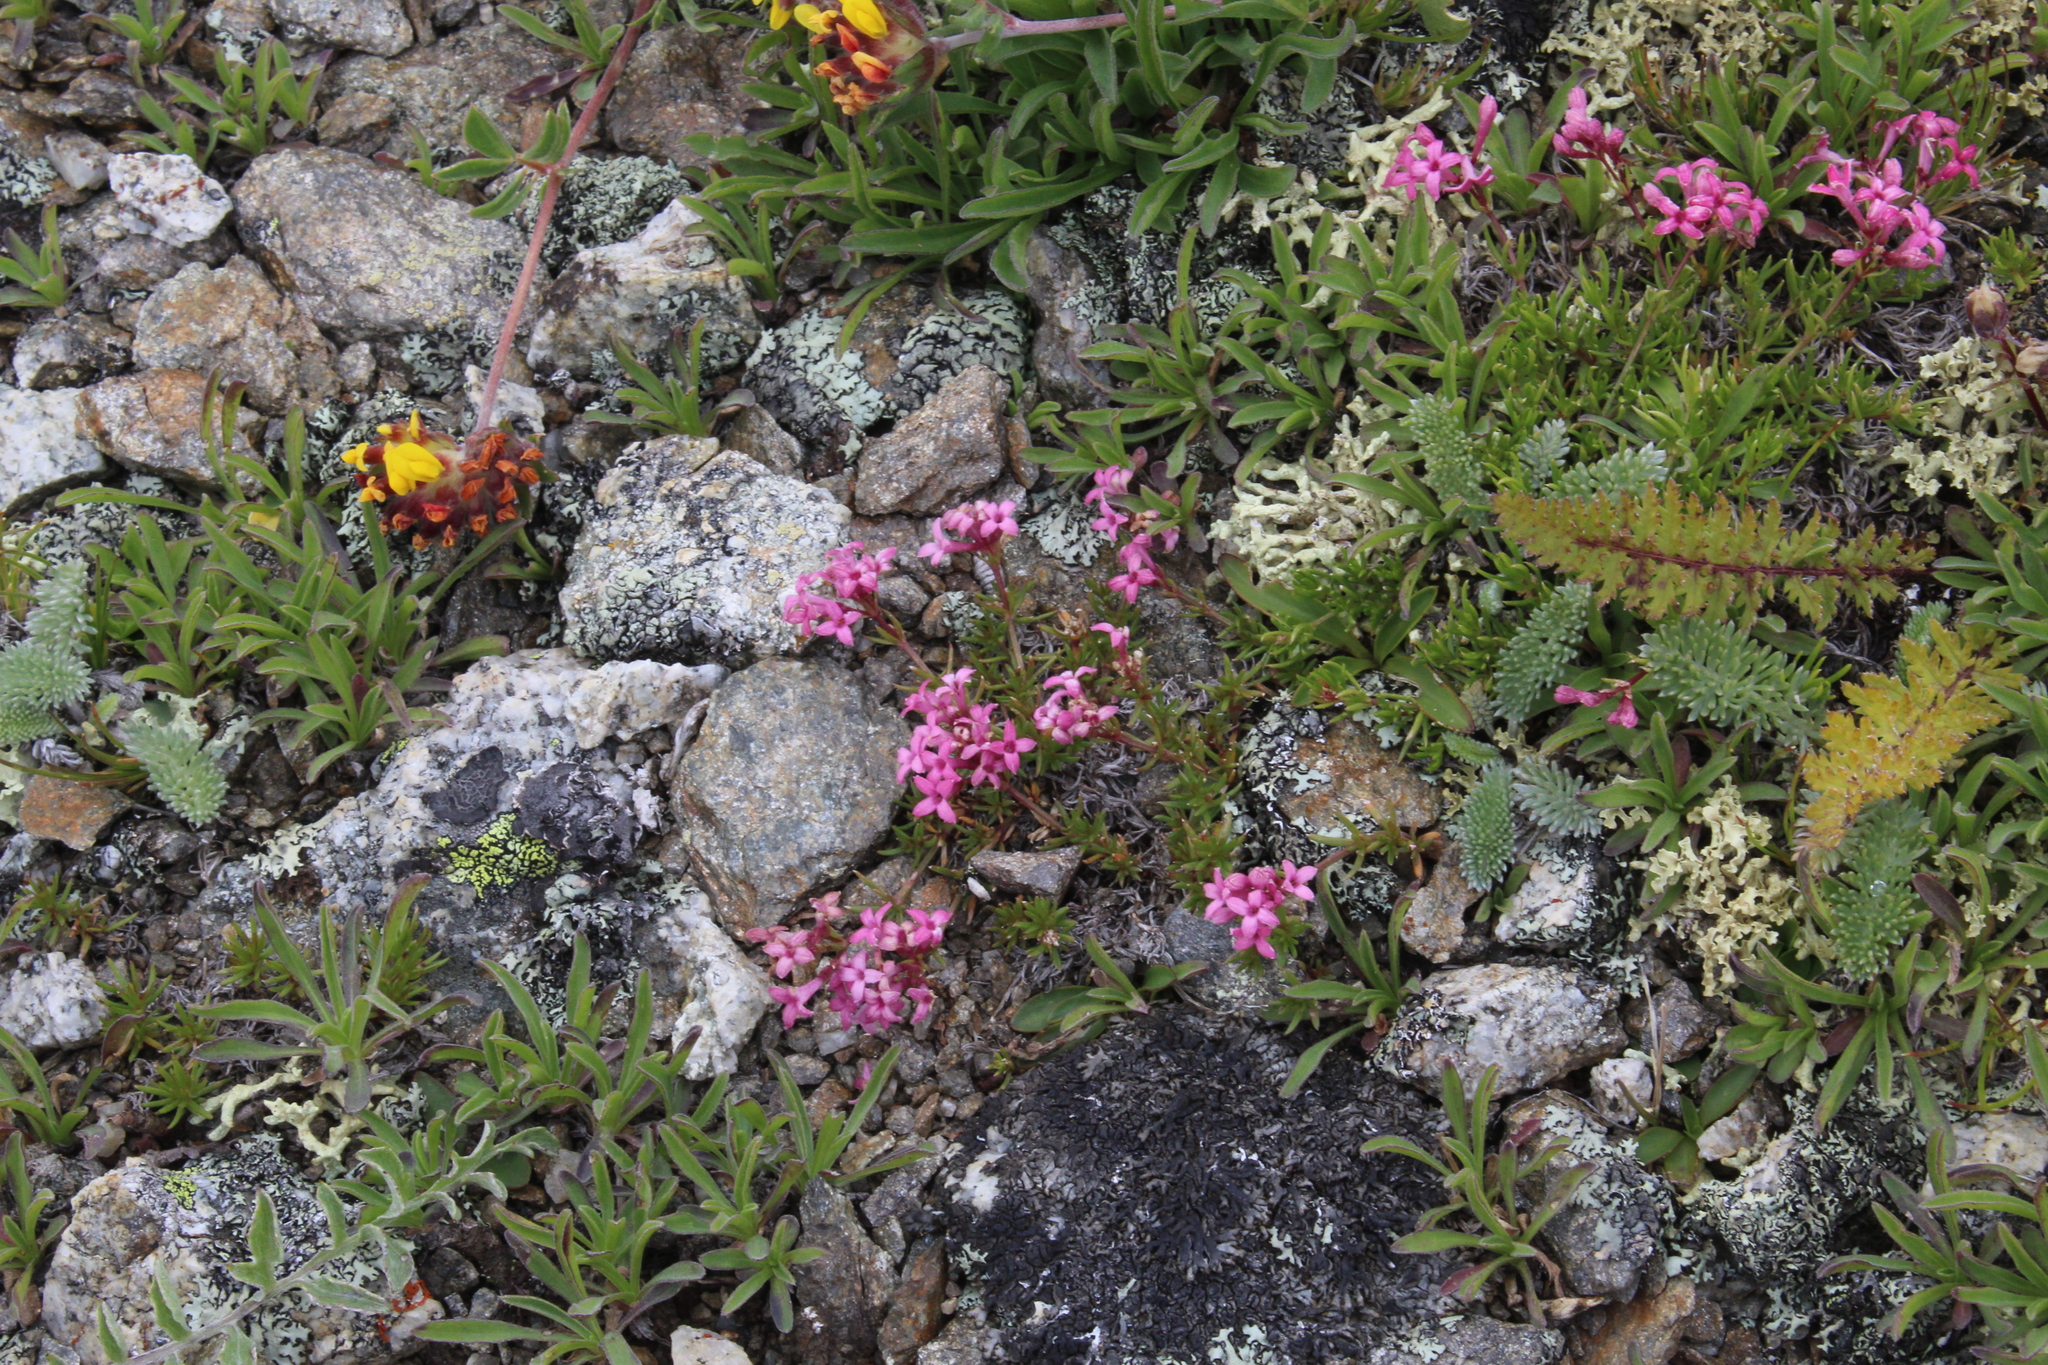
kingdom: Plantae
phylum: Tracheophyta
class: Magnoliopsida
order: Gentianales
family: Rubiaceae
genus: Cynanchica
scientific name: Cynanchica cristata
